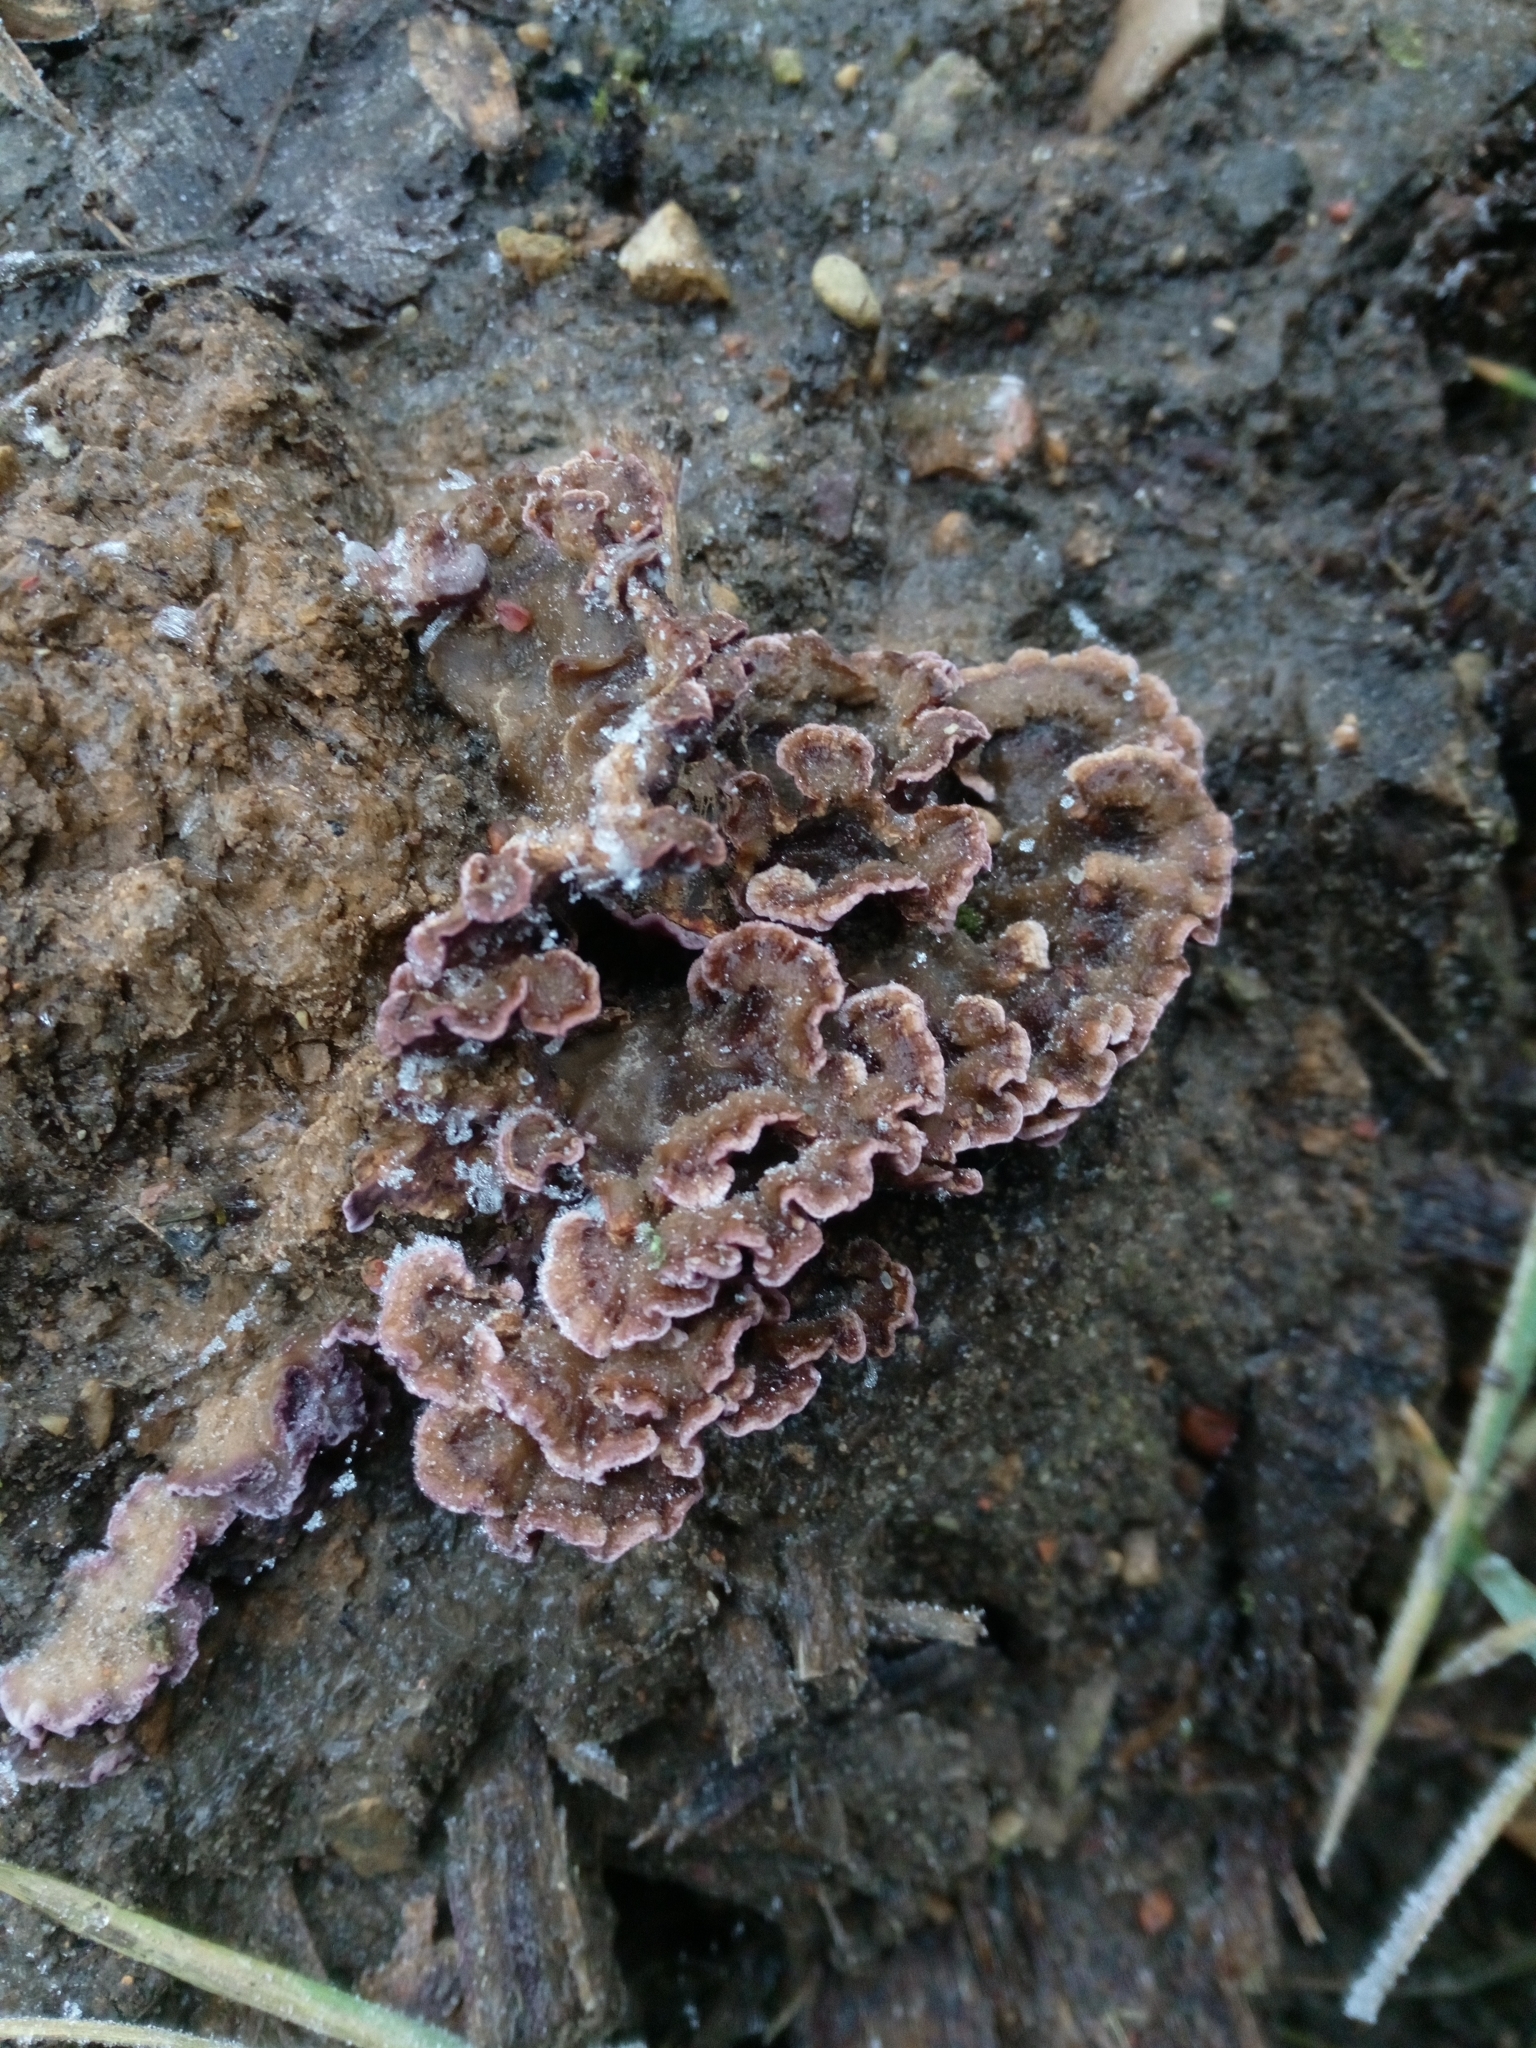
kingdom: Fungi
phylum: Basidiomycota
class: Agaricomycetes
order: Agaricales
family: Cyphellaceae
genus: Chondrostereum
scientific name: Chondrostereum purpureum
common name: Silver leaf disease
